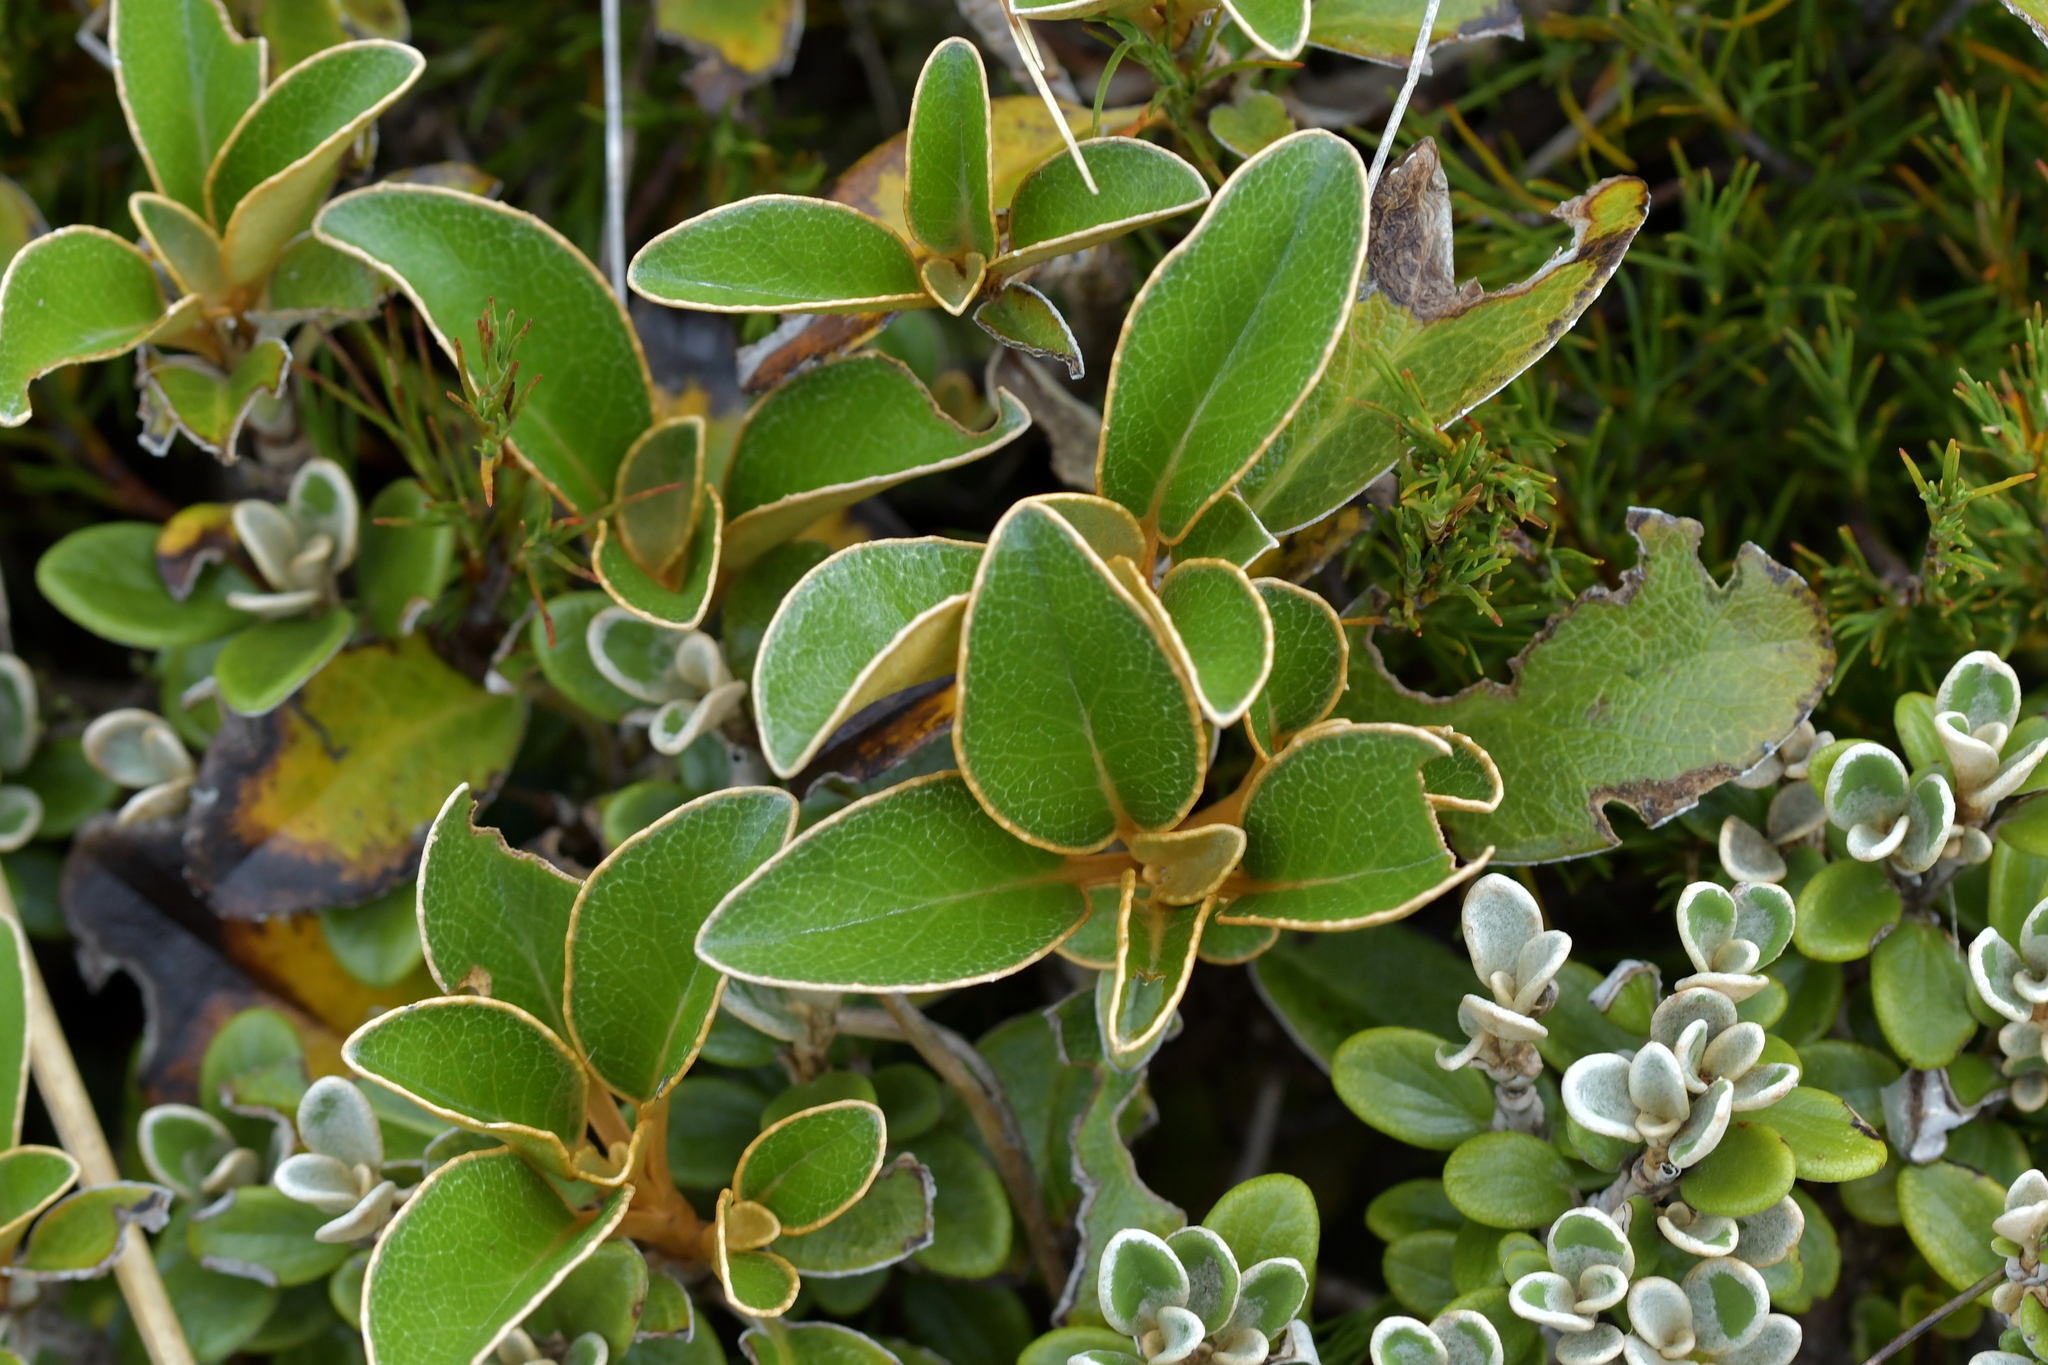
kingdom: Plantae
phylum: Tracheophyta
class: Magnoliopsida
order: Asterales
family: Asteraceae
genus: Brachyglottis
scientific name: Brachyglottis elaeagnifolia
